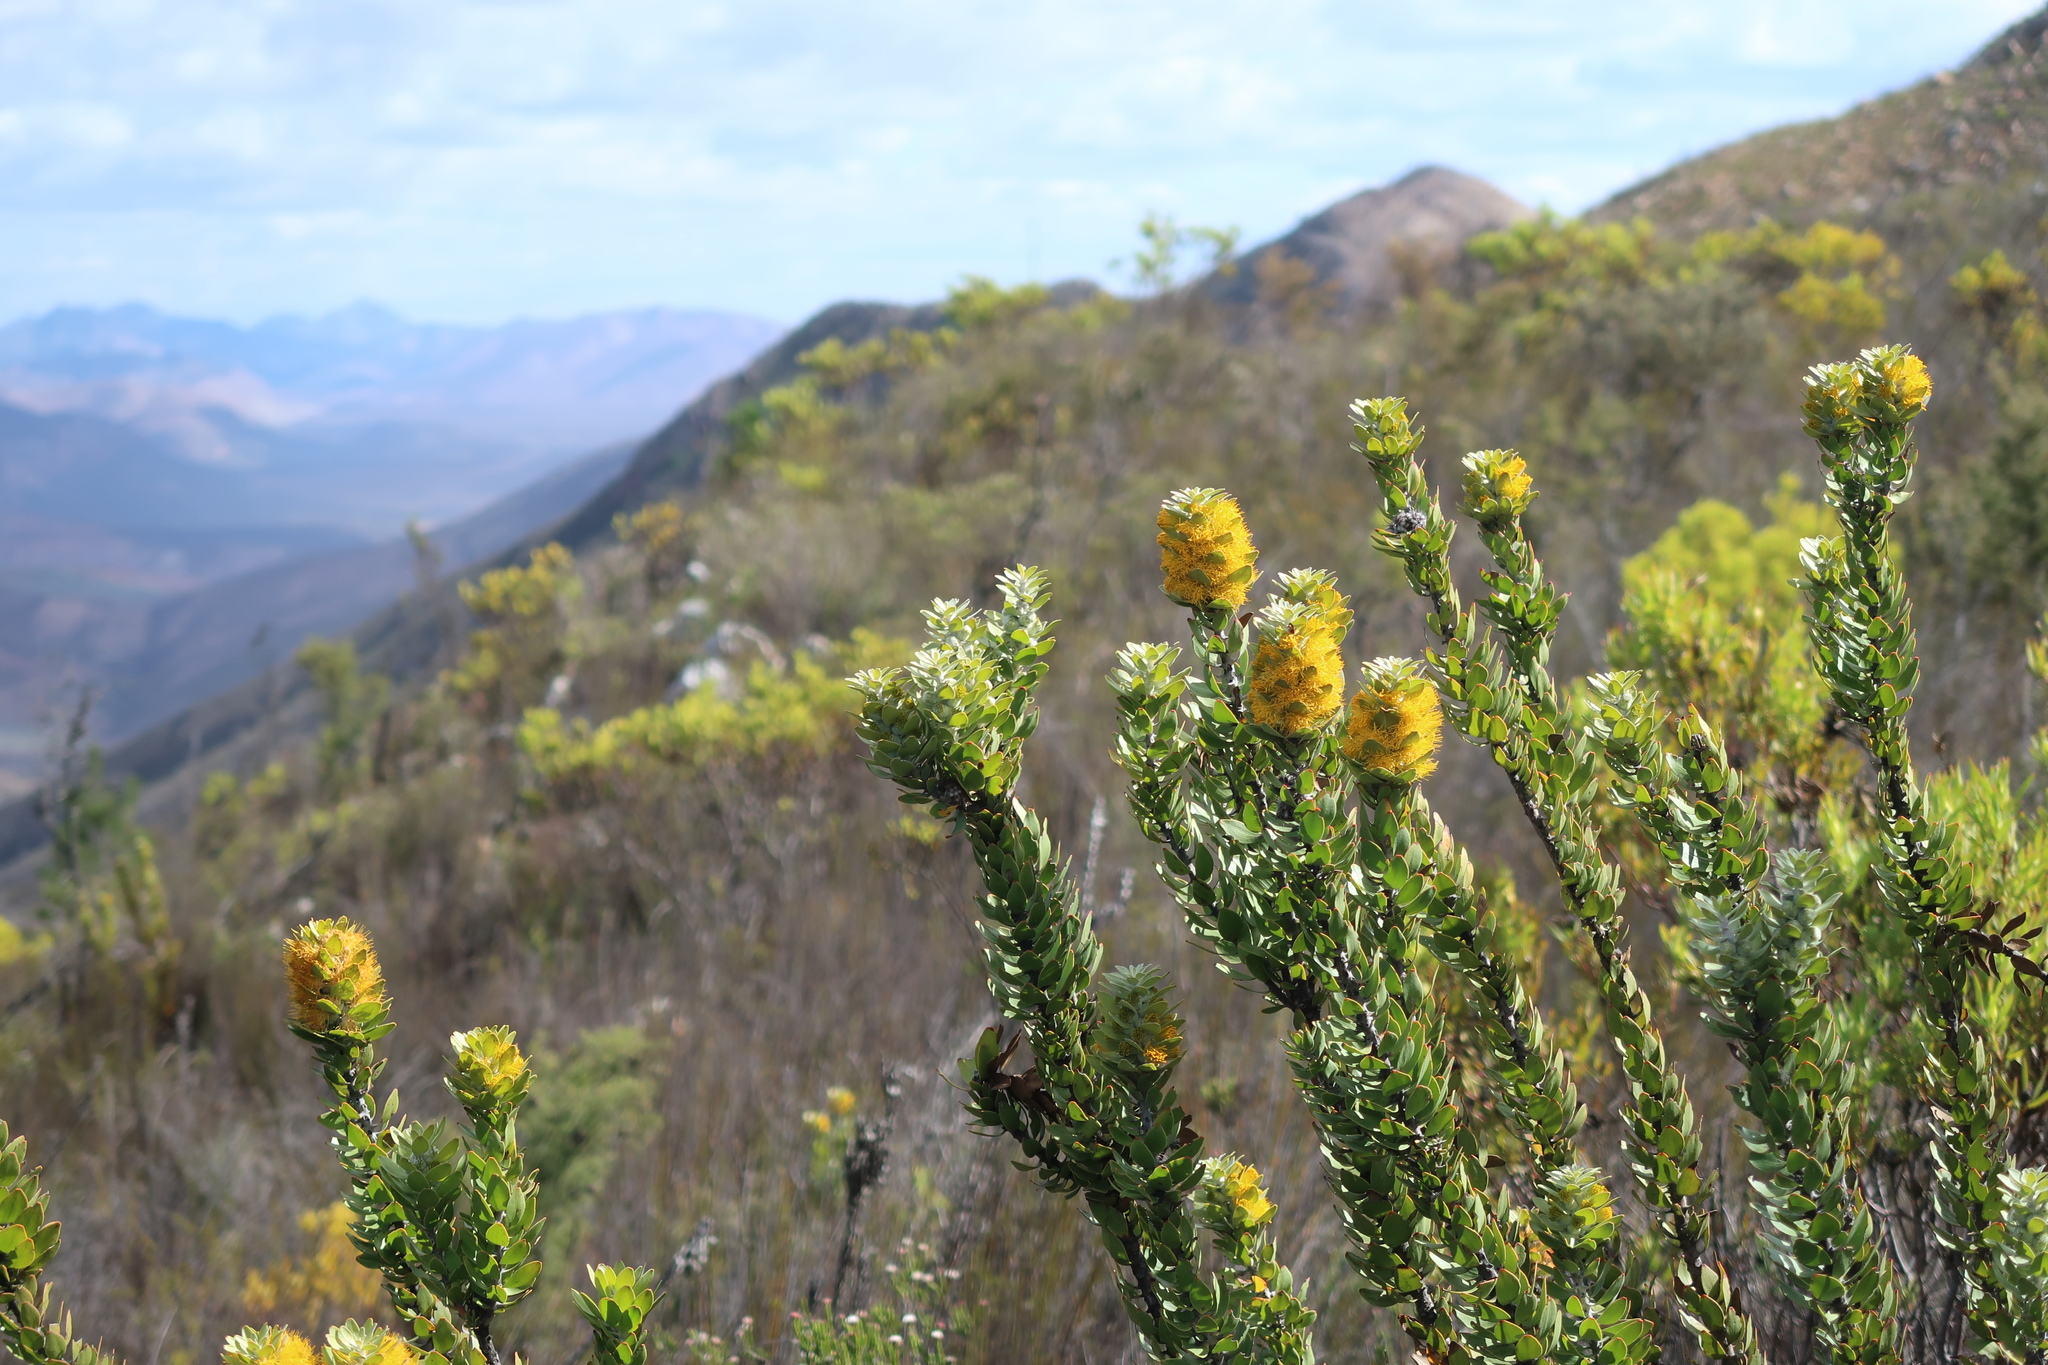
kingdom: Plantae
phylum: Tracheophyta
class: Magnoliopsida
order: Proteales
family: Proteaceae
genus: Mimetes
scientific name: Mimetes chrysanthus
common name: Golden pagoda
